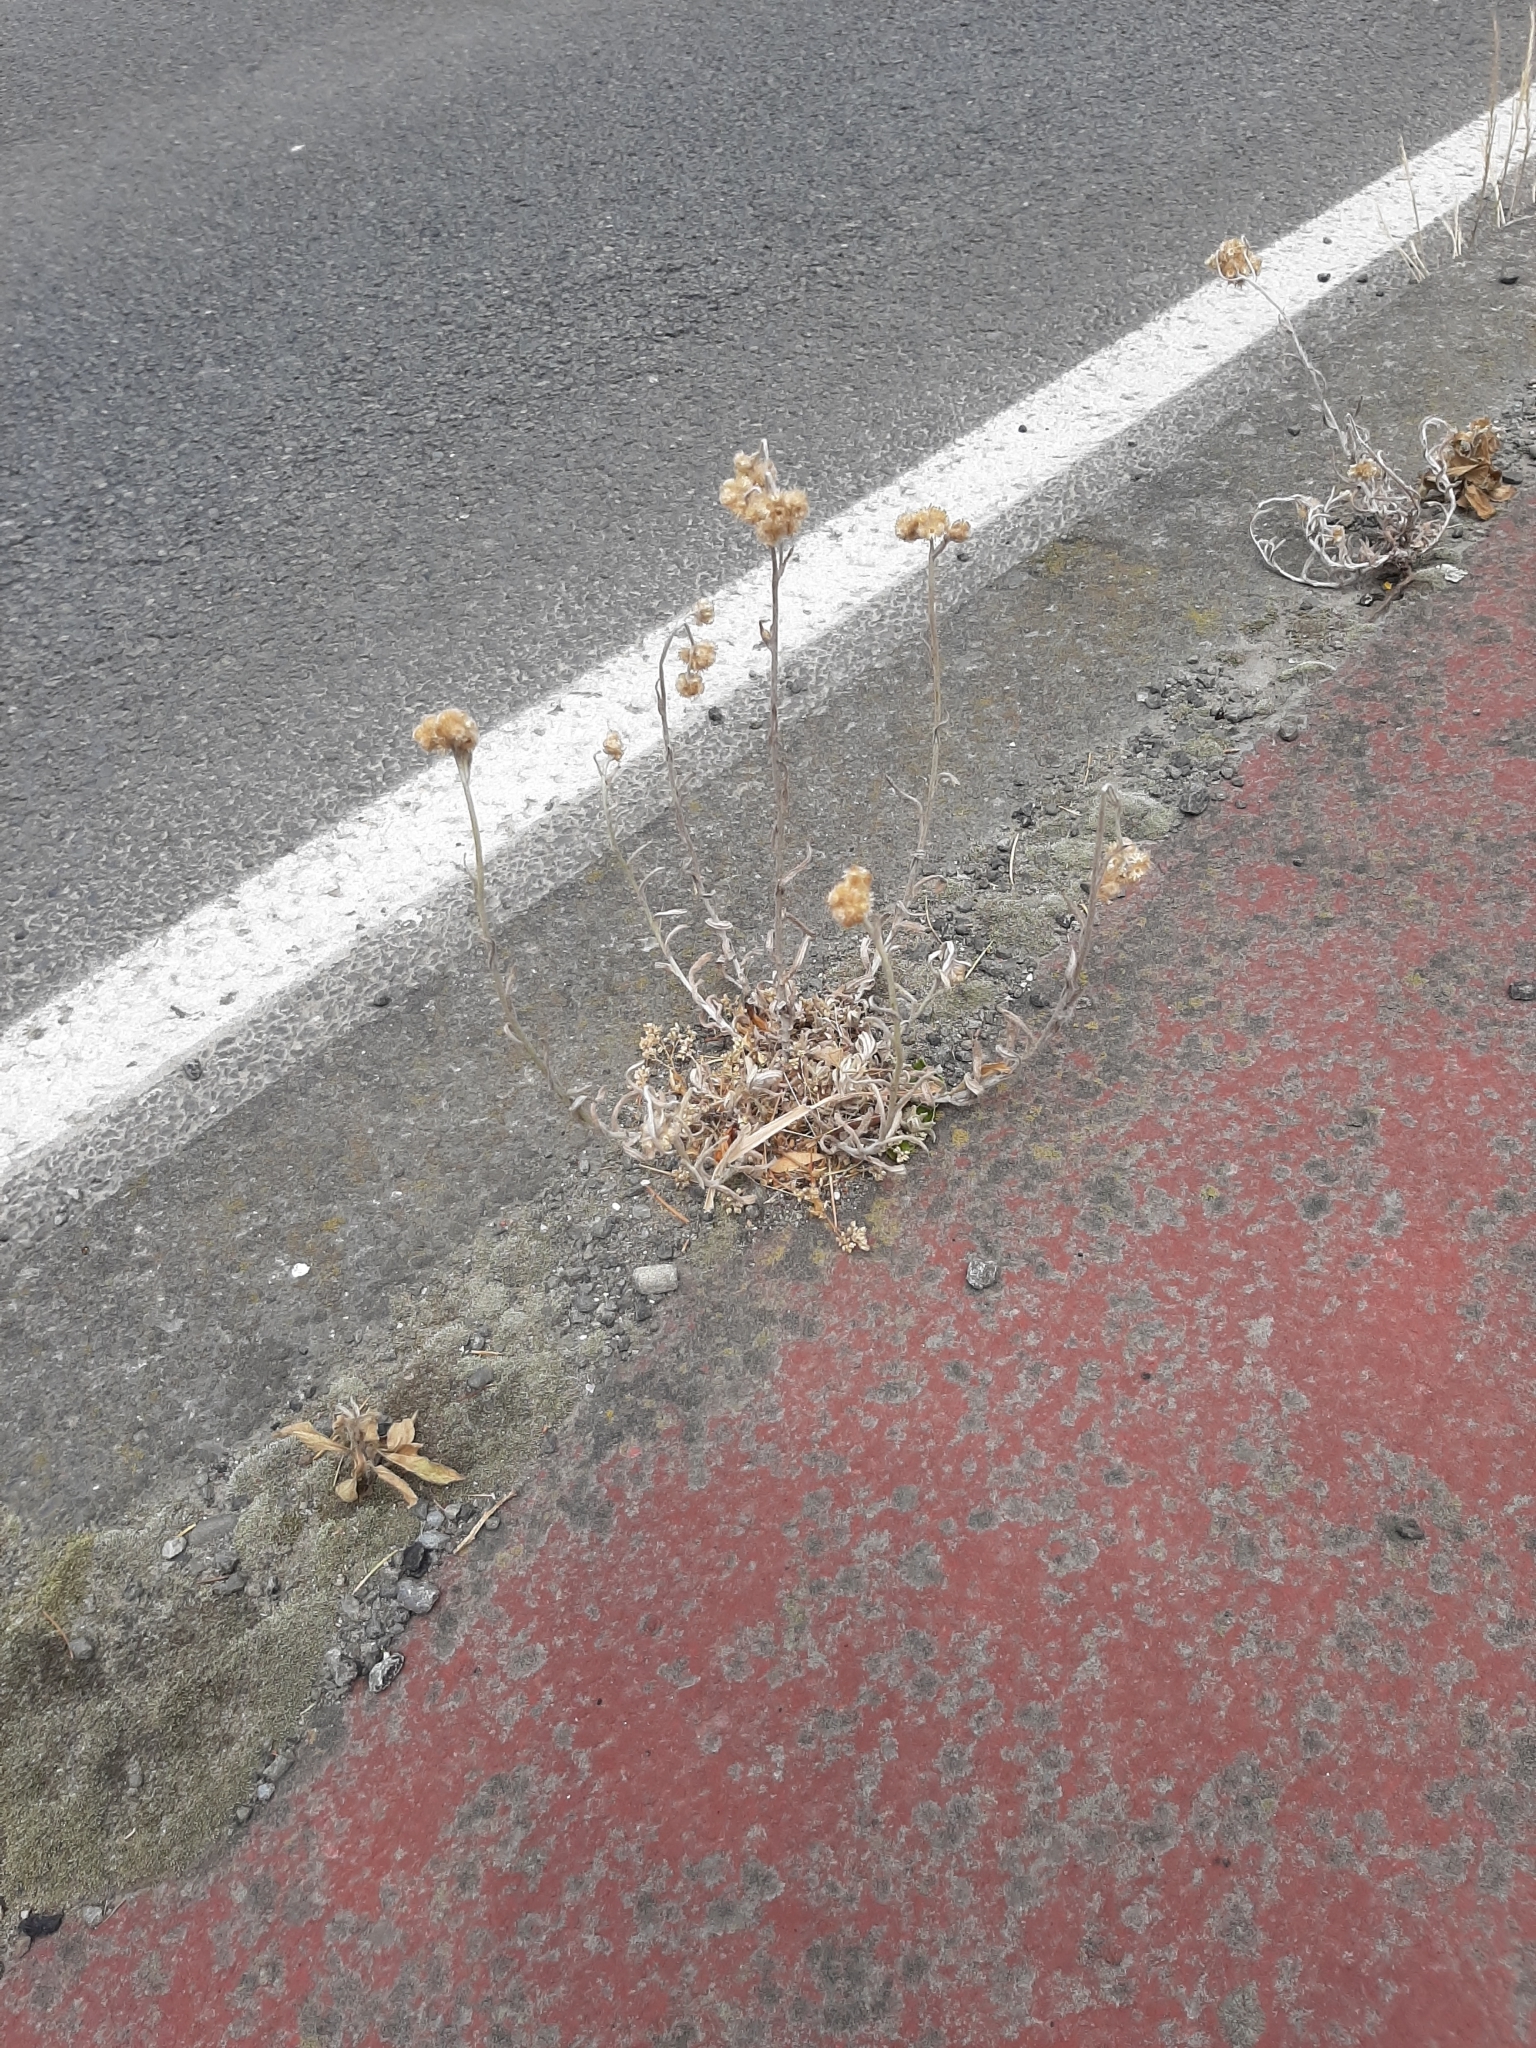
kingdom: Plantae
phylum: Tracheophyta
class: Magnoliopsida
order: Asterales
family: Asteraceae
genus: Helichrysum
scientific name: Helichrysum luteoalbum
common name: Daisy
